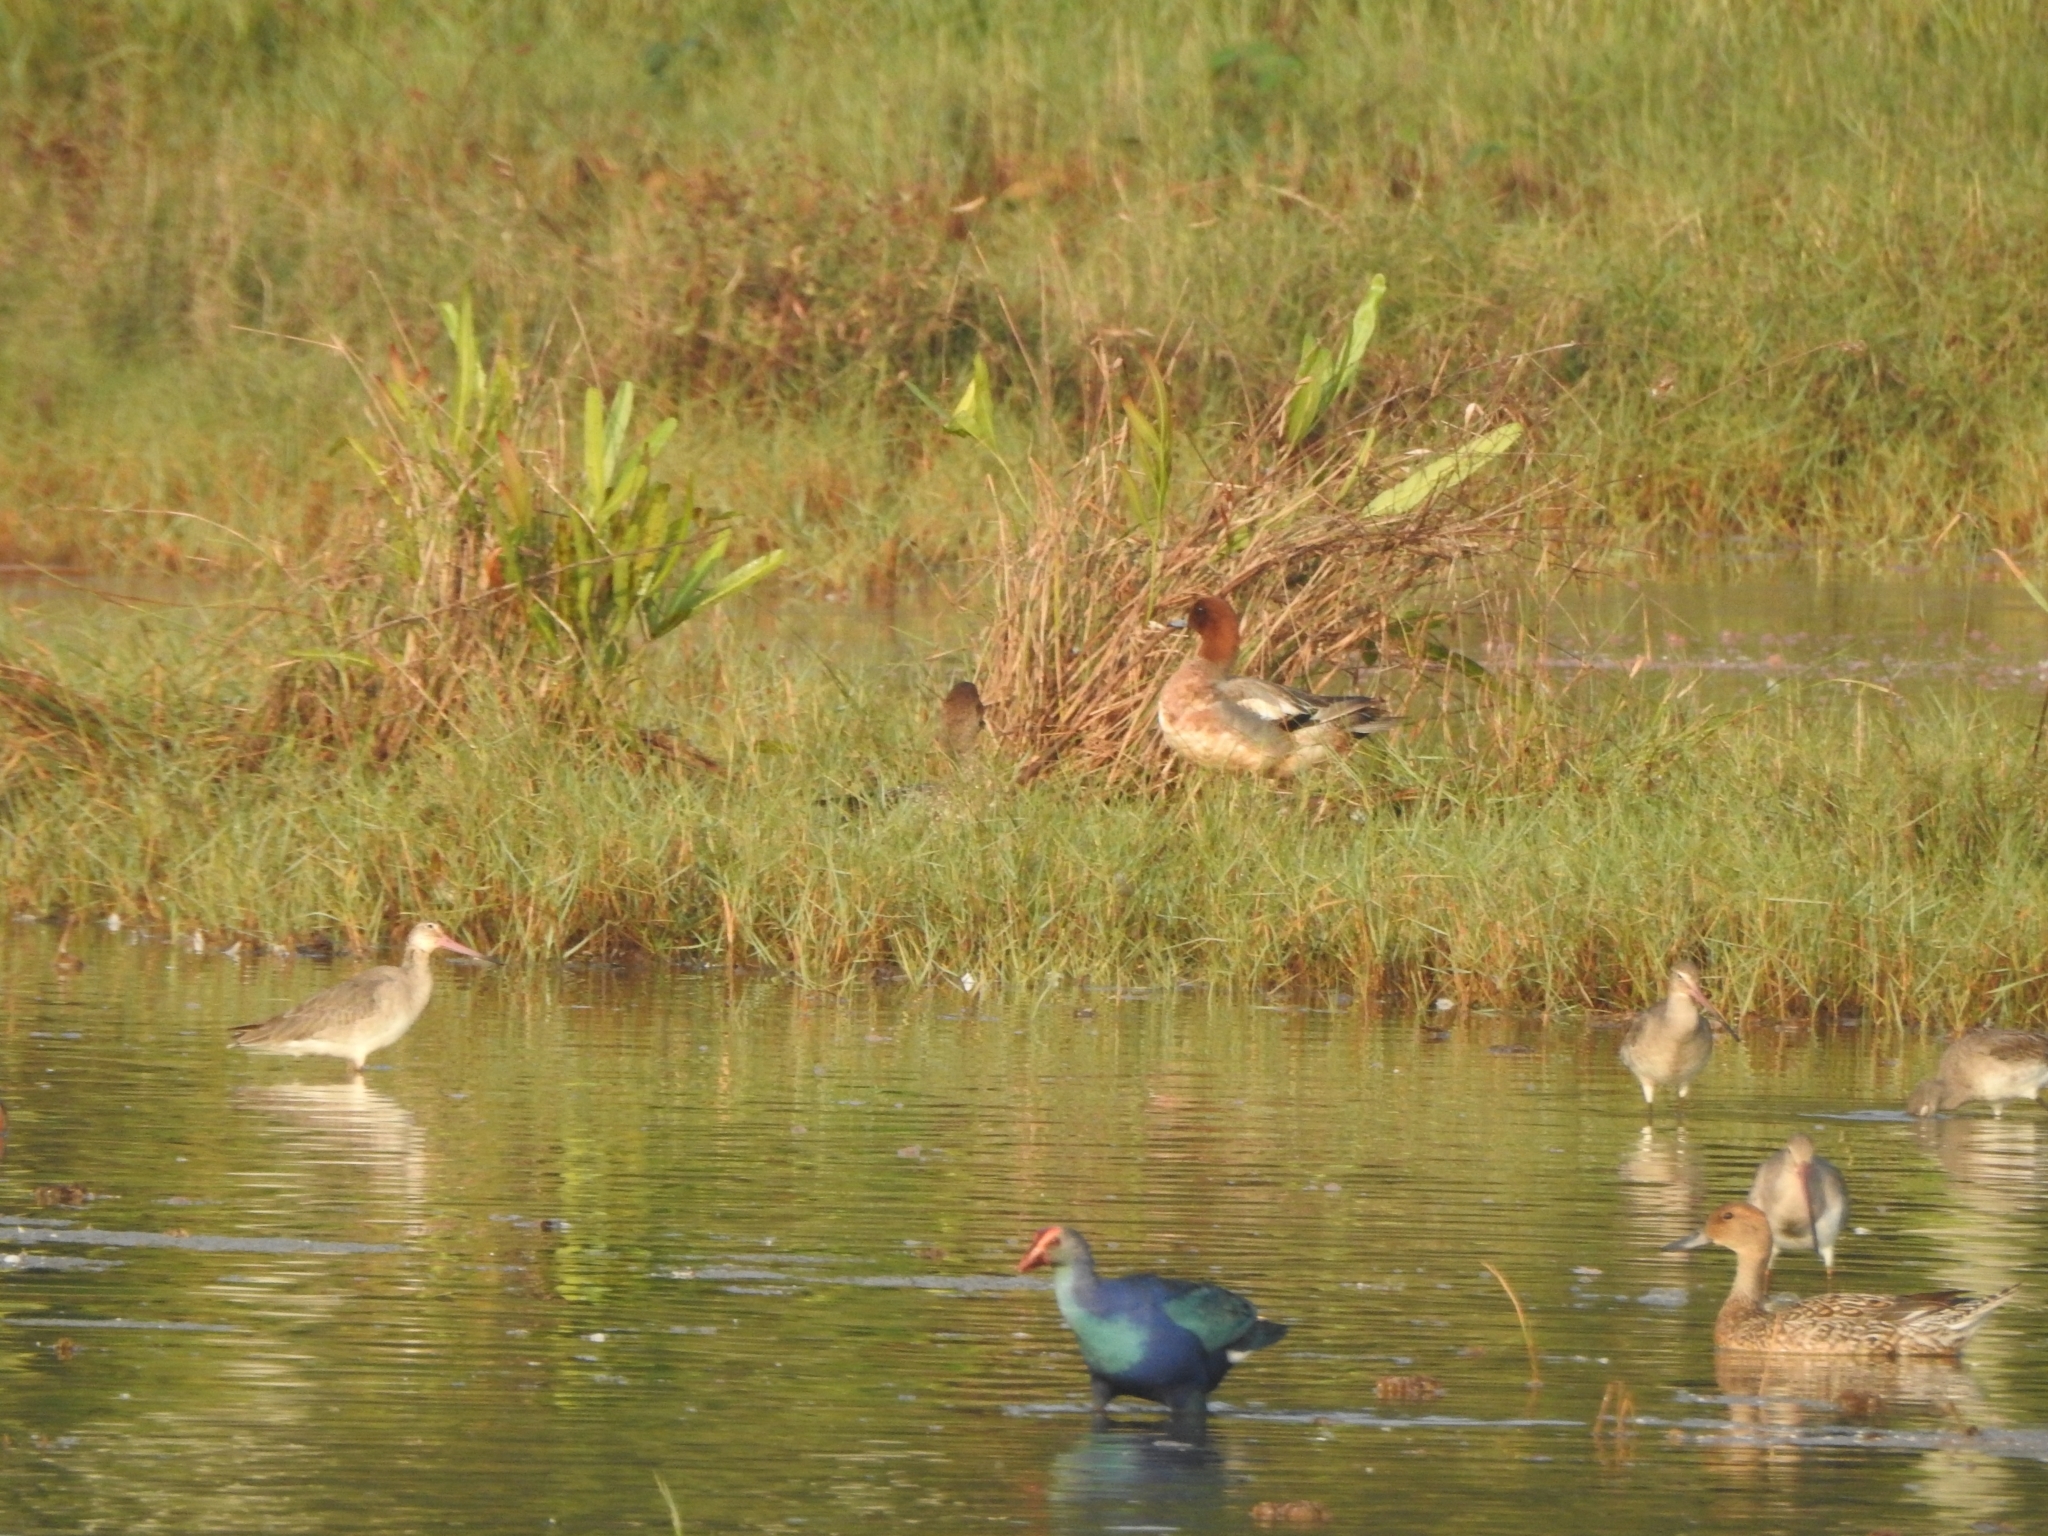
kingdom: Animalia
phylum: Chordata
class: Aves
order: Gruiformes
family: Rallidae
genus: Porphyrio
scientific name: Porphyrio porphyrio
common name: Purple swamphen
